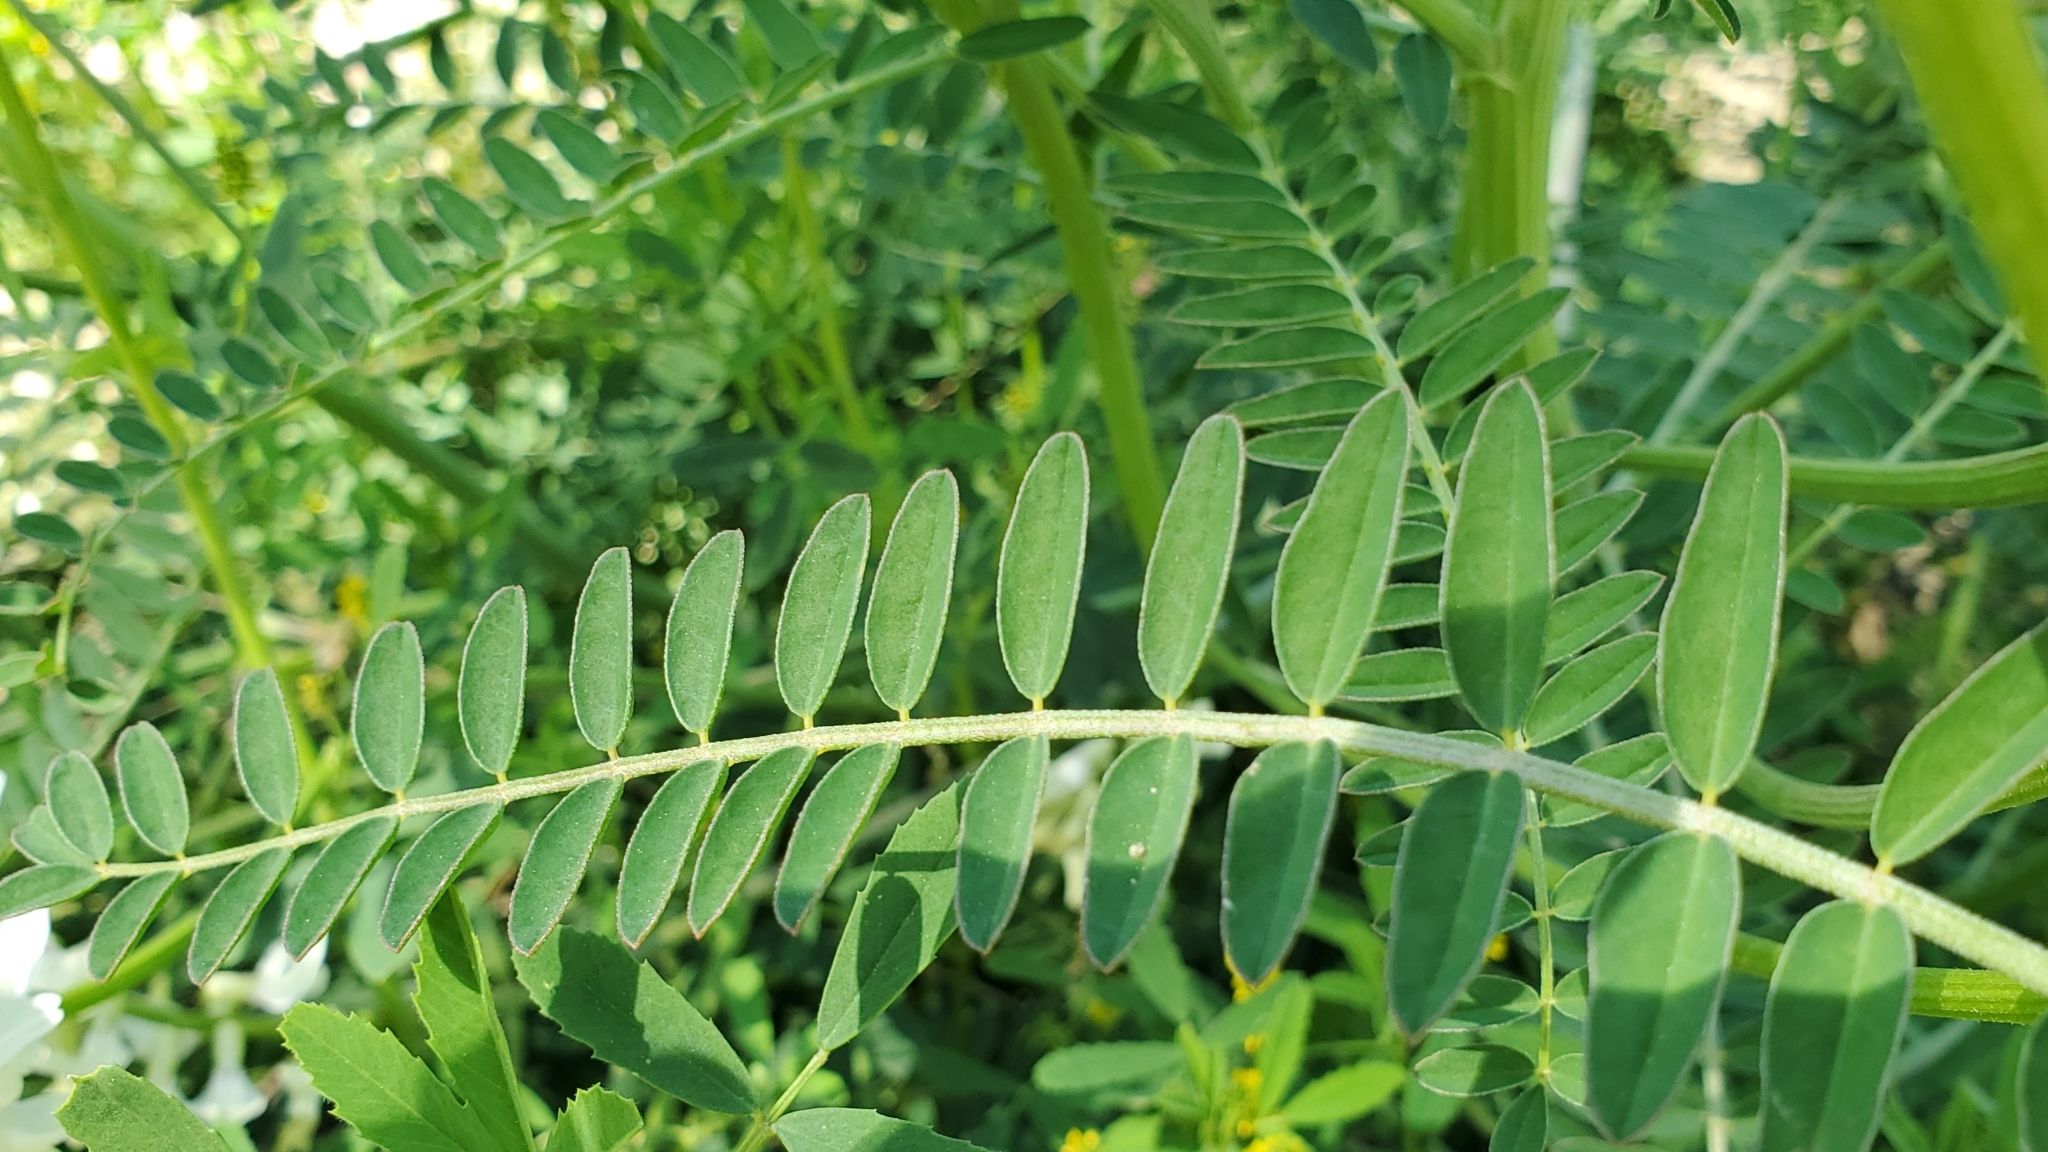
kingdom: Plantae
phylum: Tracheophyta
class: Magnoliopsida
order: Fabales
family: Fabaceae
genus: Astragalus
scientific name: Astragalus trichopodus
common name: Santa barbara milk-vetch
